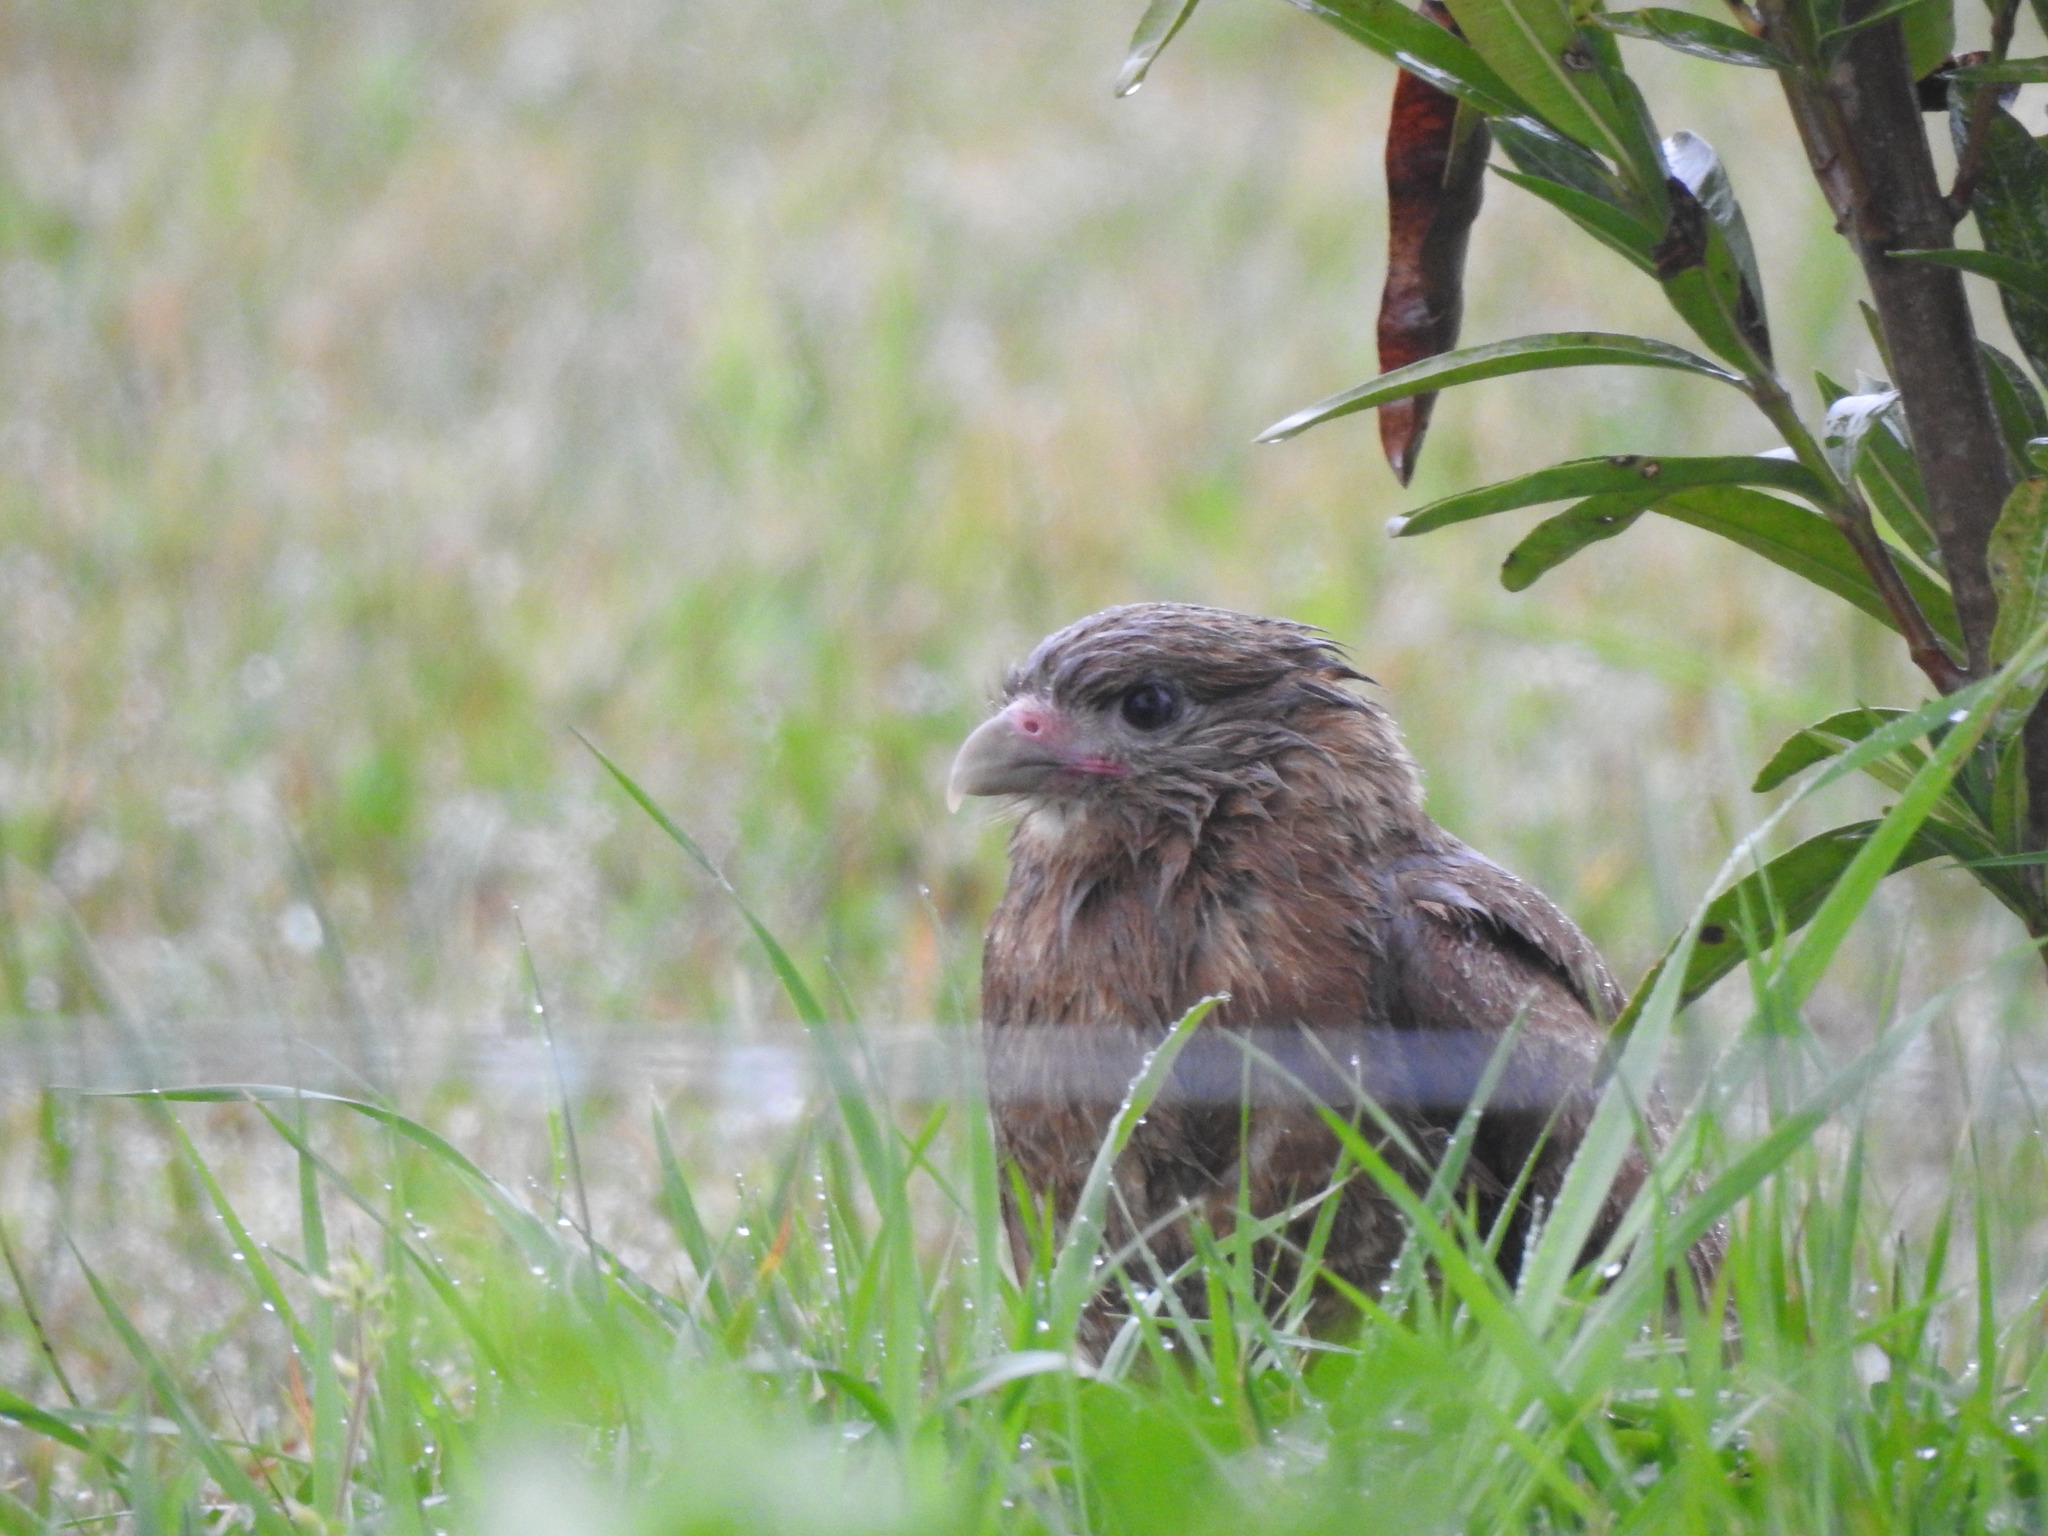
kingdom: Animalia
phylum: Chordata
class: Aves
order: Falconiformes
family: Falconidae
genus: Daptrius
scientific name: Daptrius
